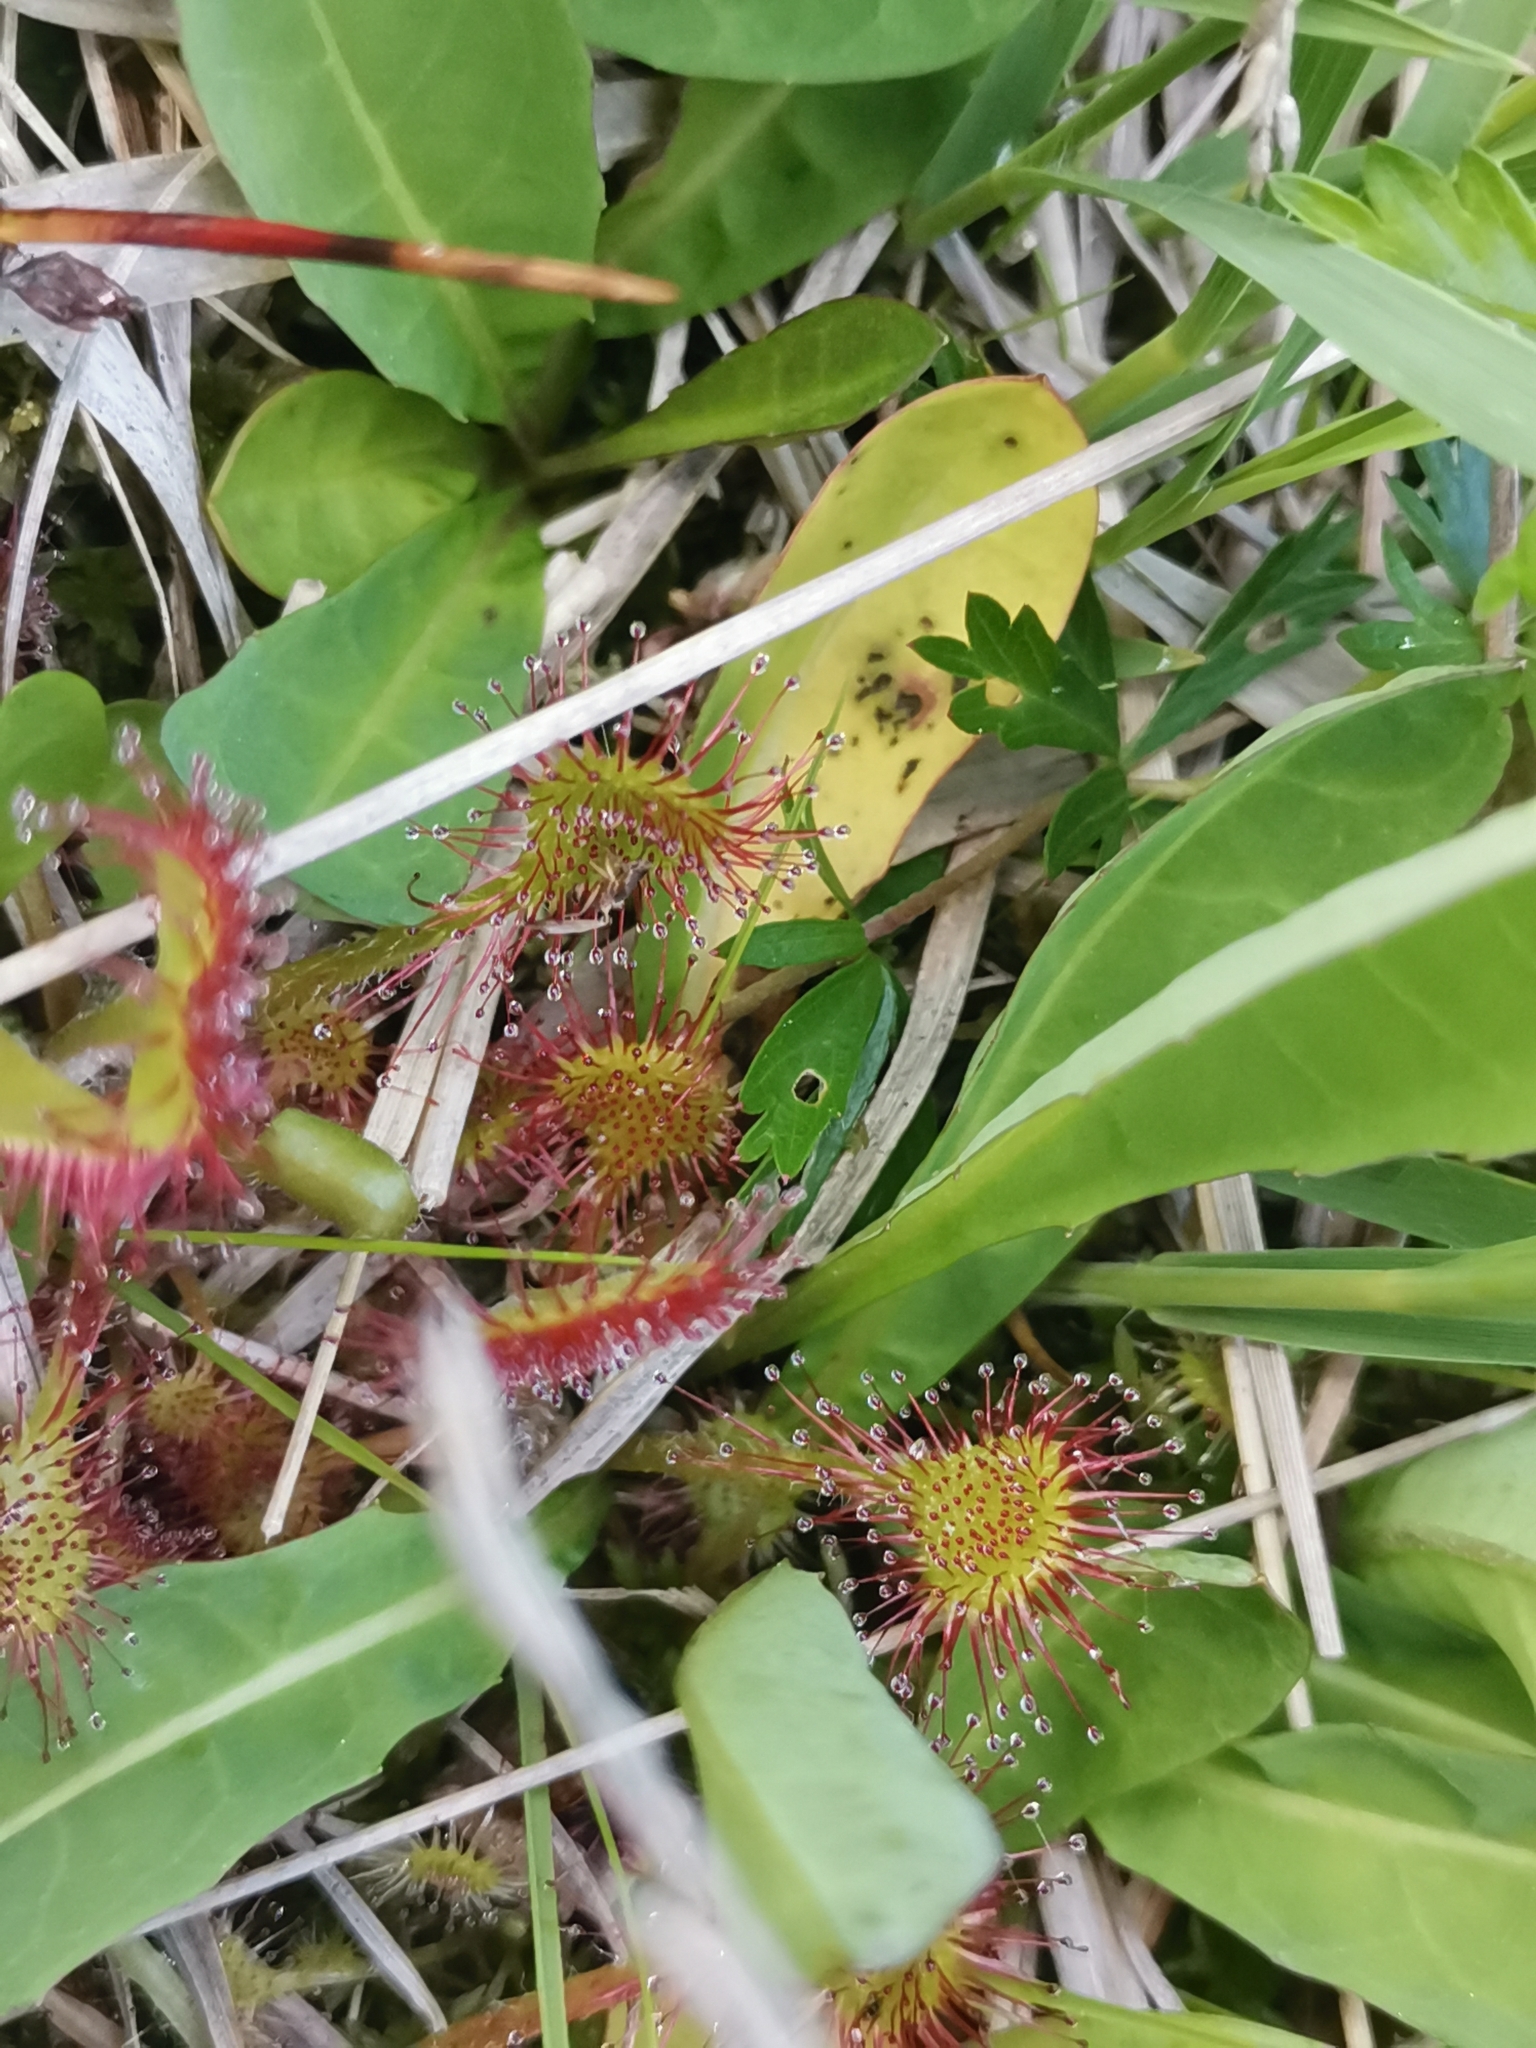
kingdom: Plantae
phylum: Tracheophyta
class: Magnoliopsida
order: Caryophyllales
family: Droseraceae
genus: Drosera
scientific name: Drosera rotundifolia
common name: Round-leaved sundew
